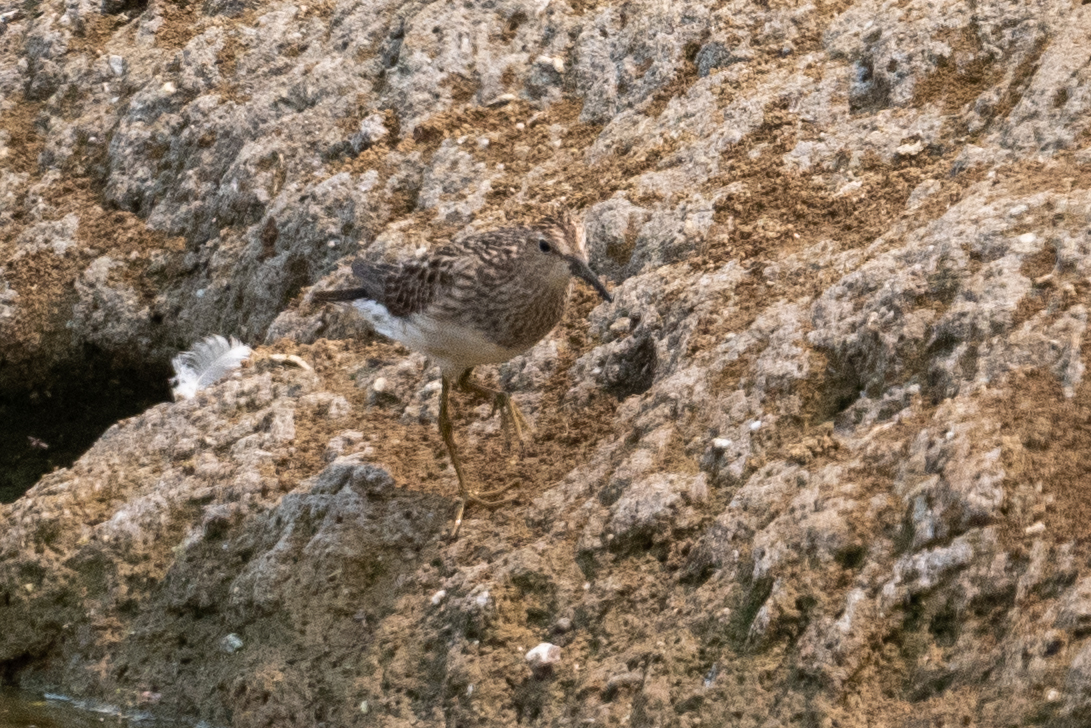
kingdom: Animalia
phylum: Chordata
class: Aves
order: Charadriiformes
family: Scolopacidae
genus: Calidris
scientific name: Calidris melanotos
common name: Pectoral sandpiper
